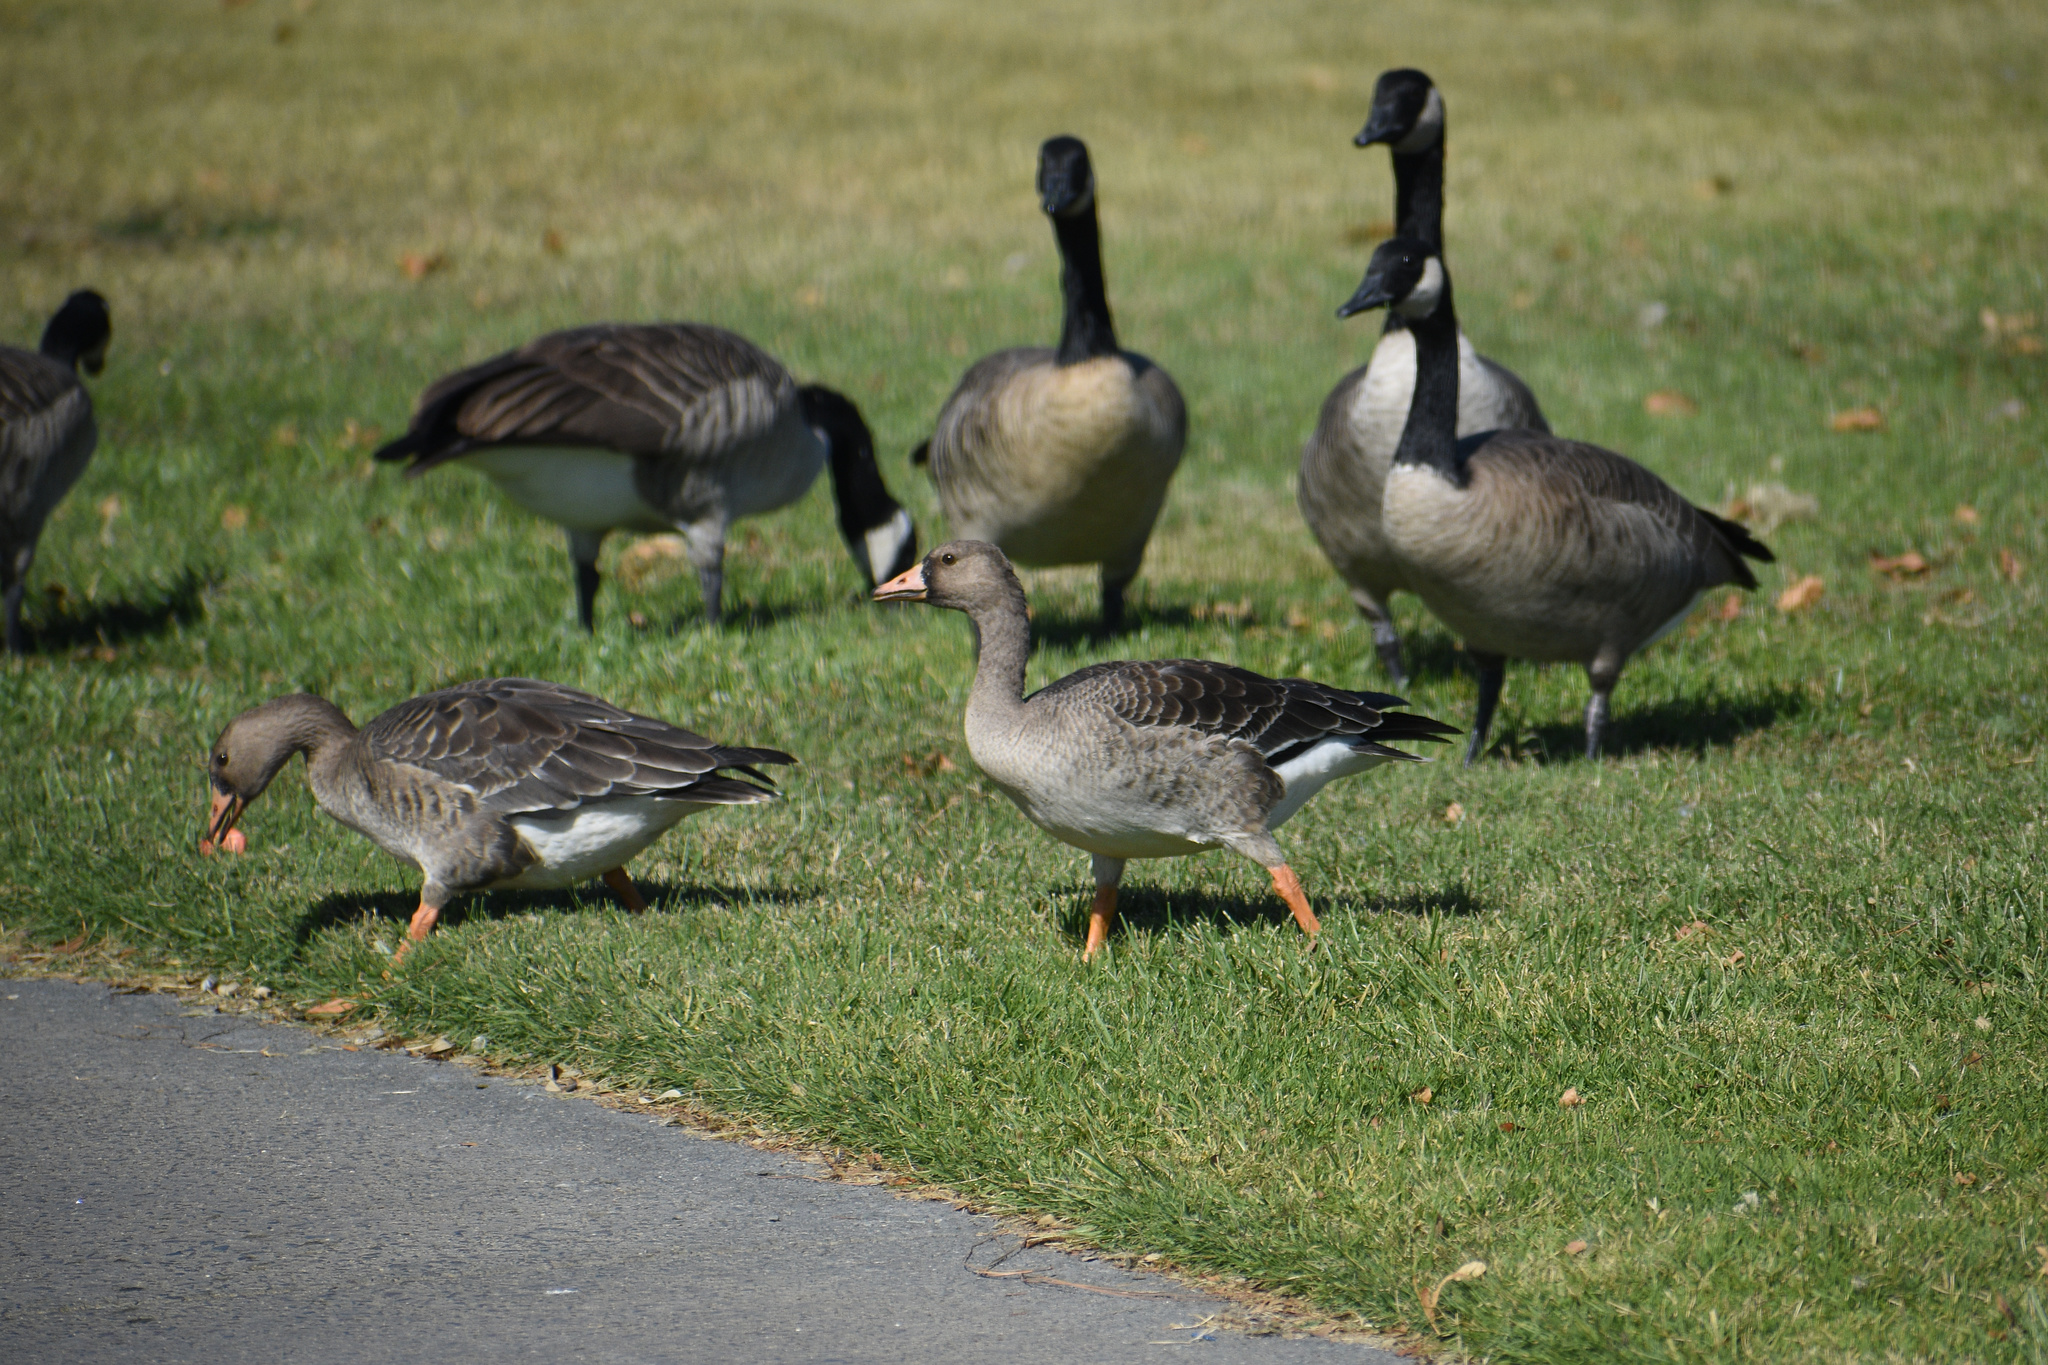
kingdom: Animalia
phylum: Chordata
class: Aves
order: Anseriformes
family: Anatidae
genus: Anser
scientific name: Anser albifrons
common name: Greater white-fronted goose
